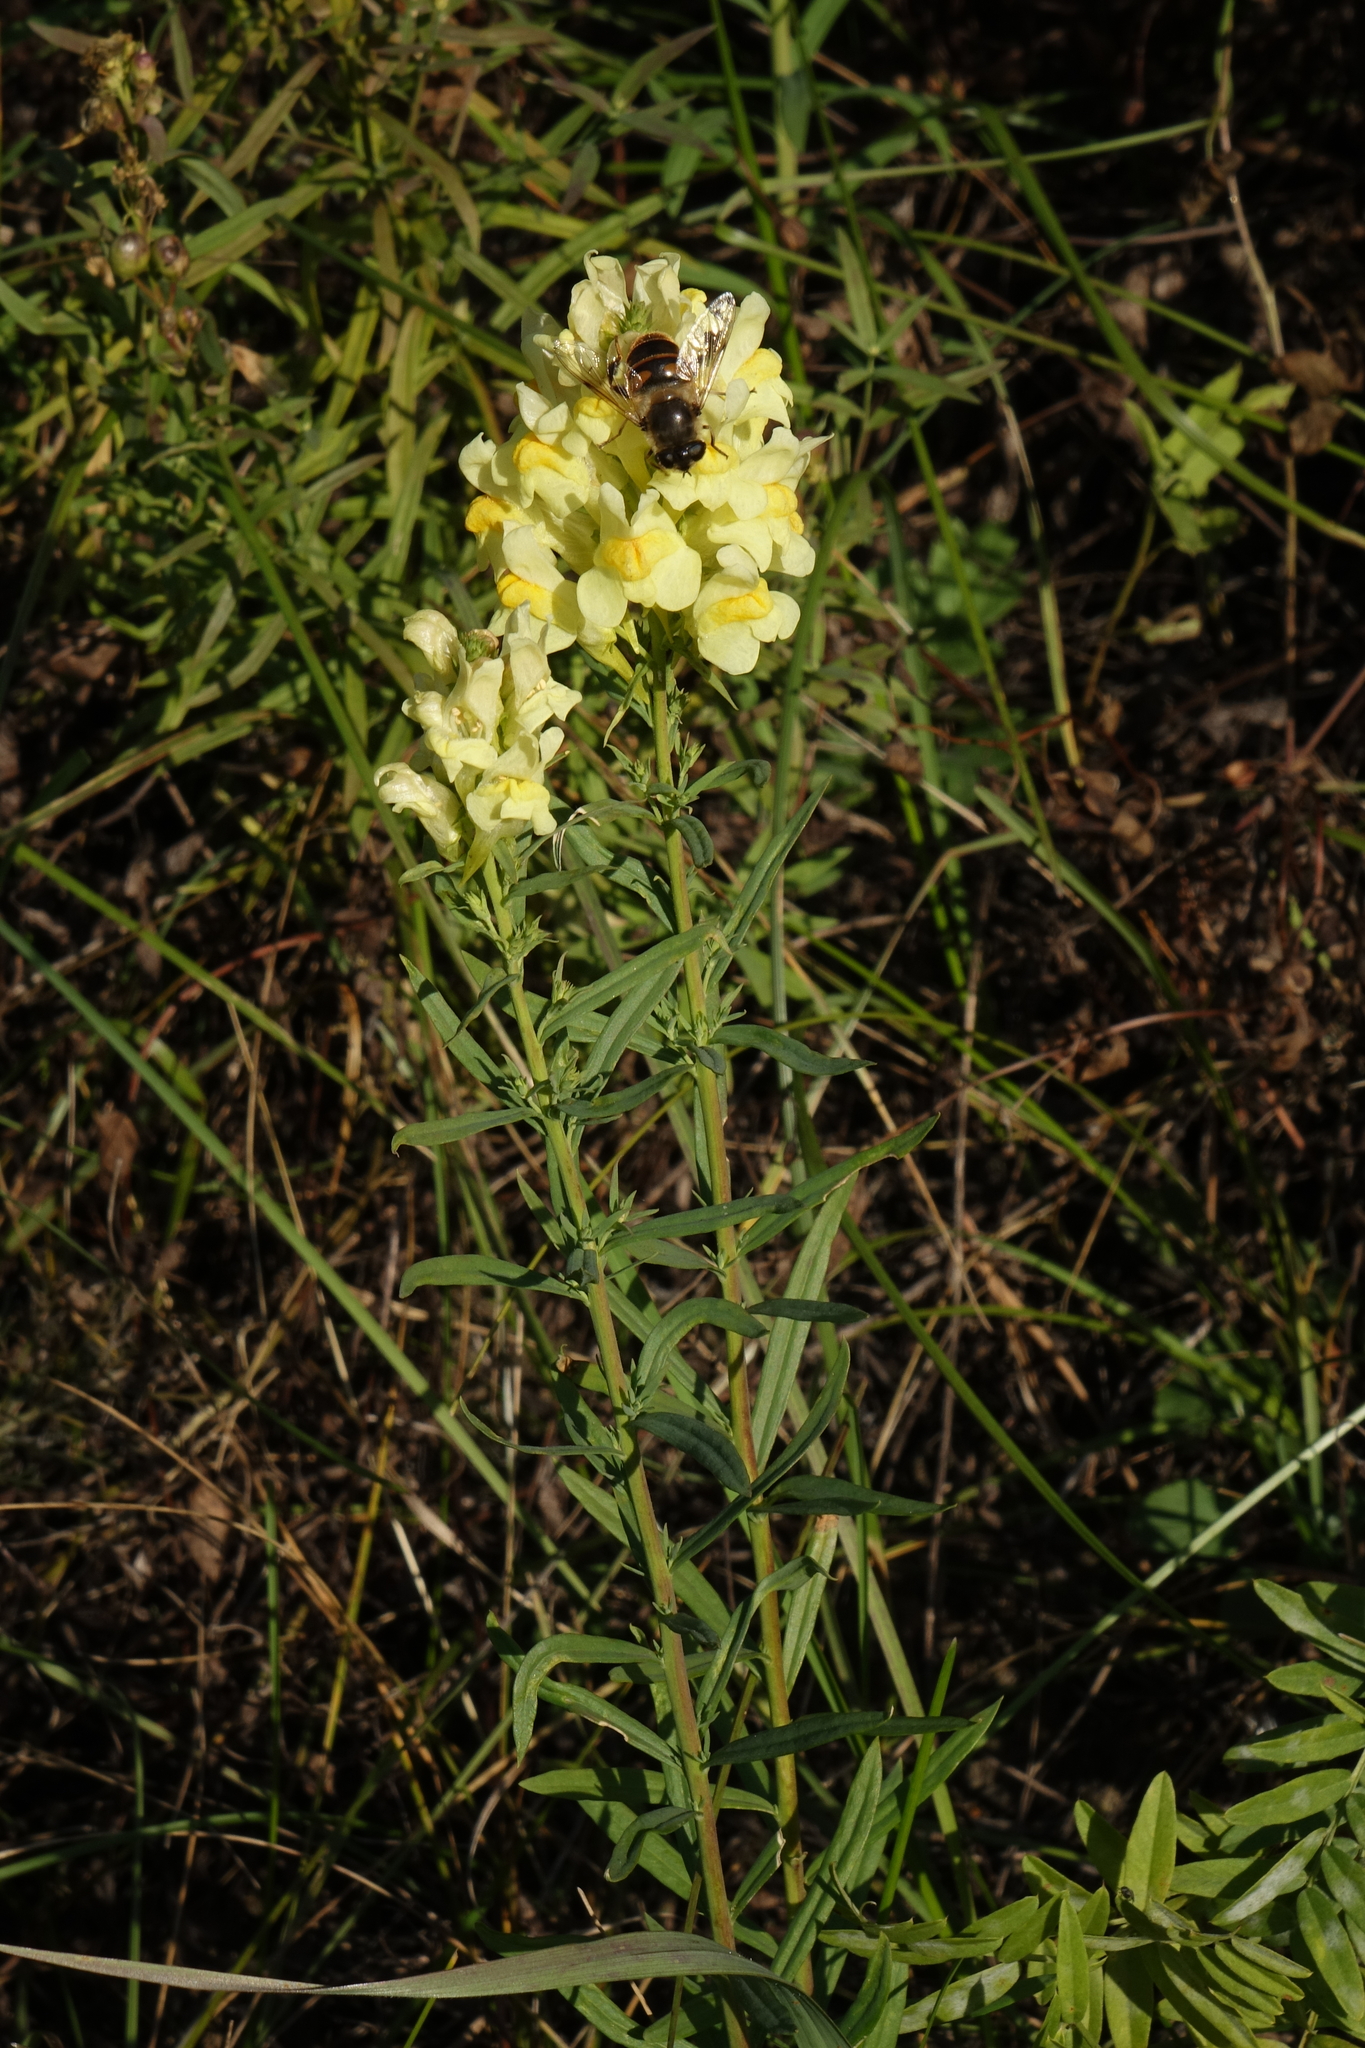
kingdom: Plantae
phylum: Tracheophyta
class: Magnoliopsida
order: Lamiales
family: Plantaginaceae
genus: Linaria
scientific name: Linaria vulgaris
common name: Butter and eggs
